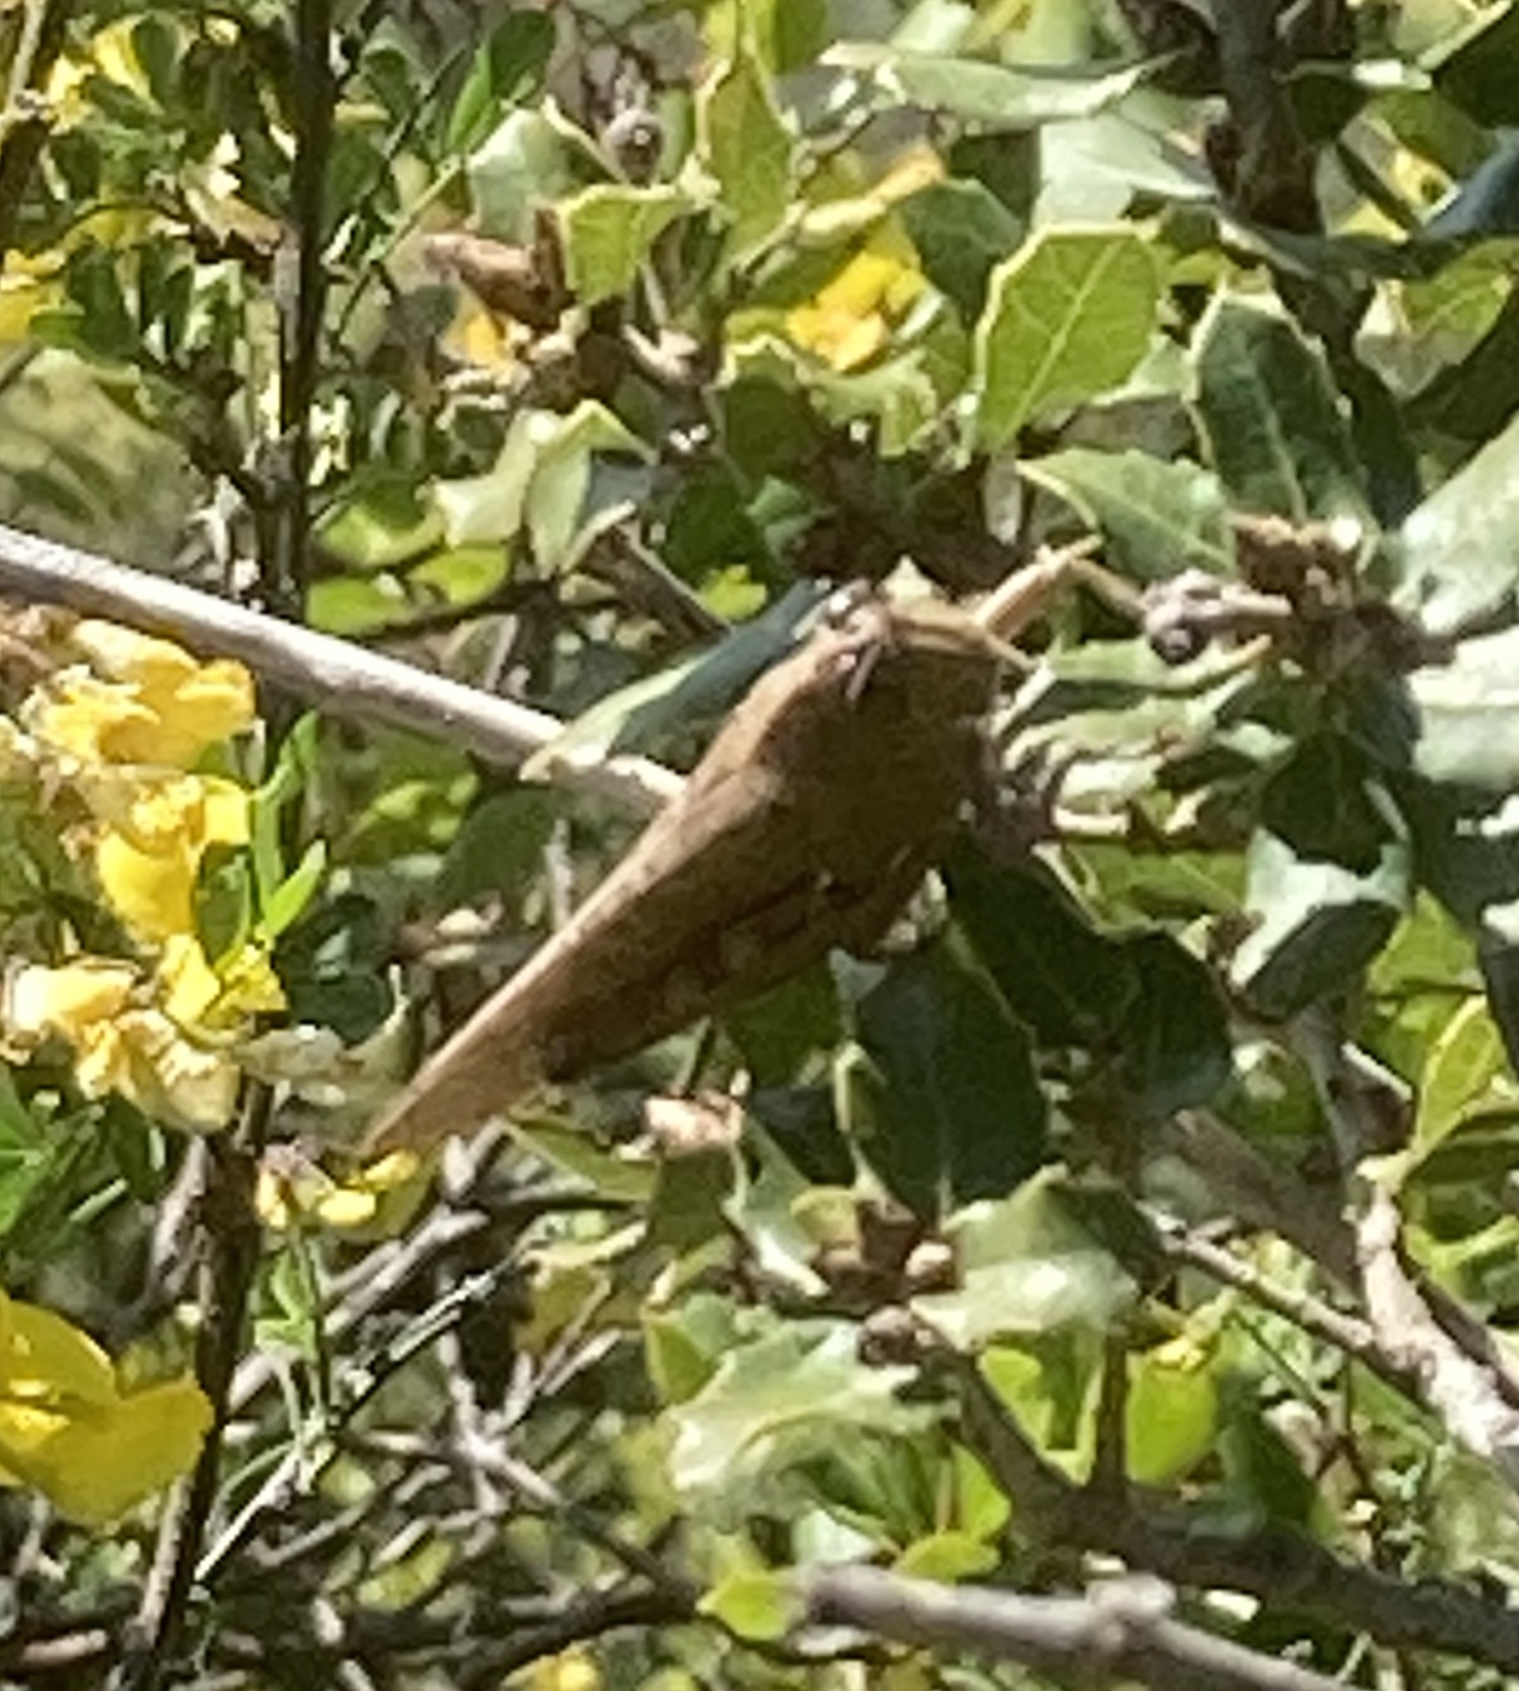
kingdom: Animalia
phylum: Arthropoda
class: Insecta
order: Orthoptera
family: Acrididae
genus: Anacridium
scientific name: Anacridium aegyptium
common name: Egyptian grasshopper
